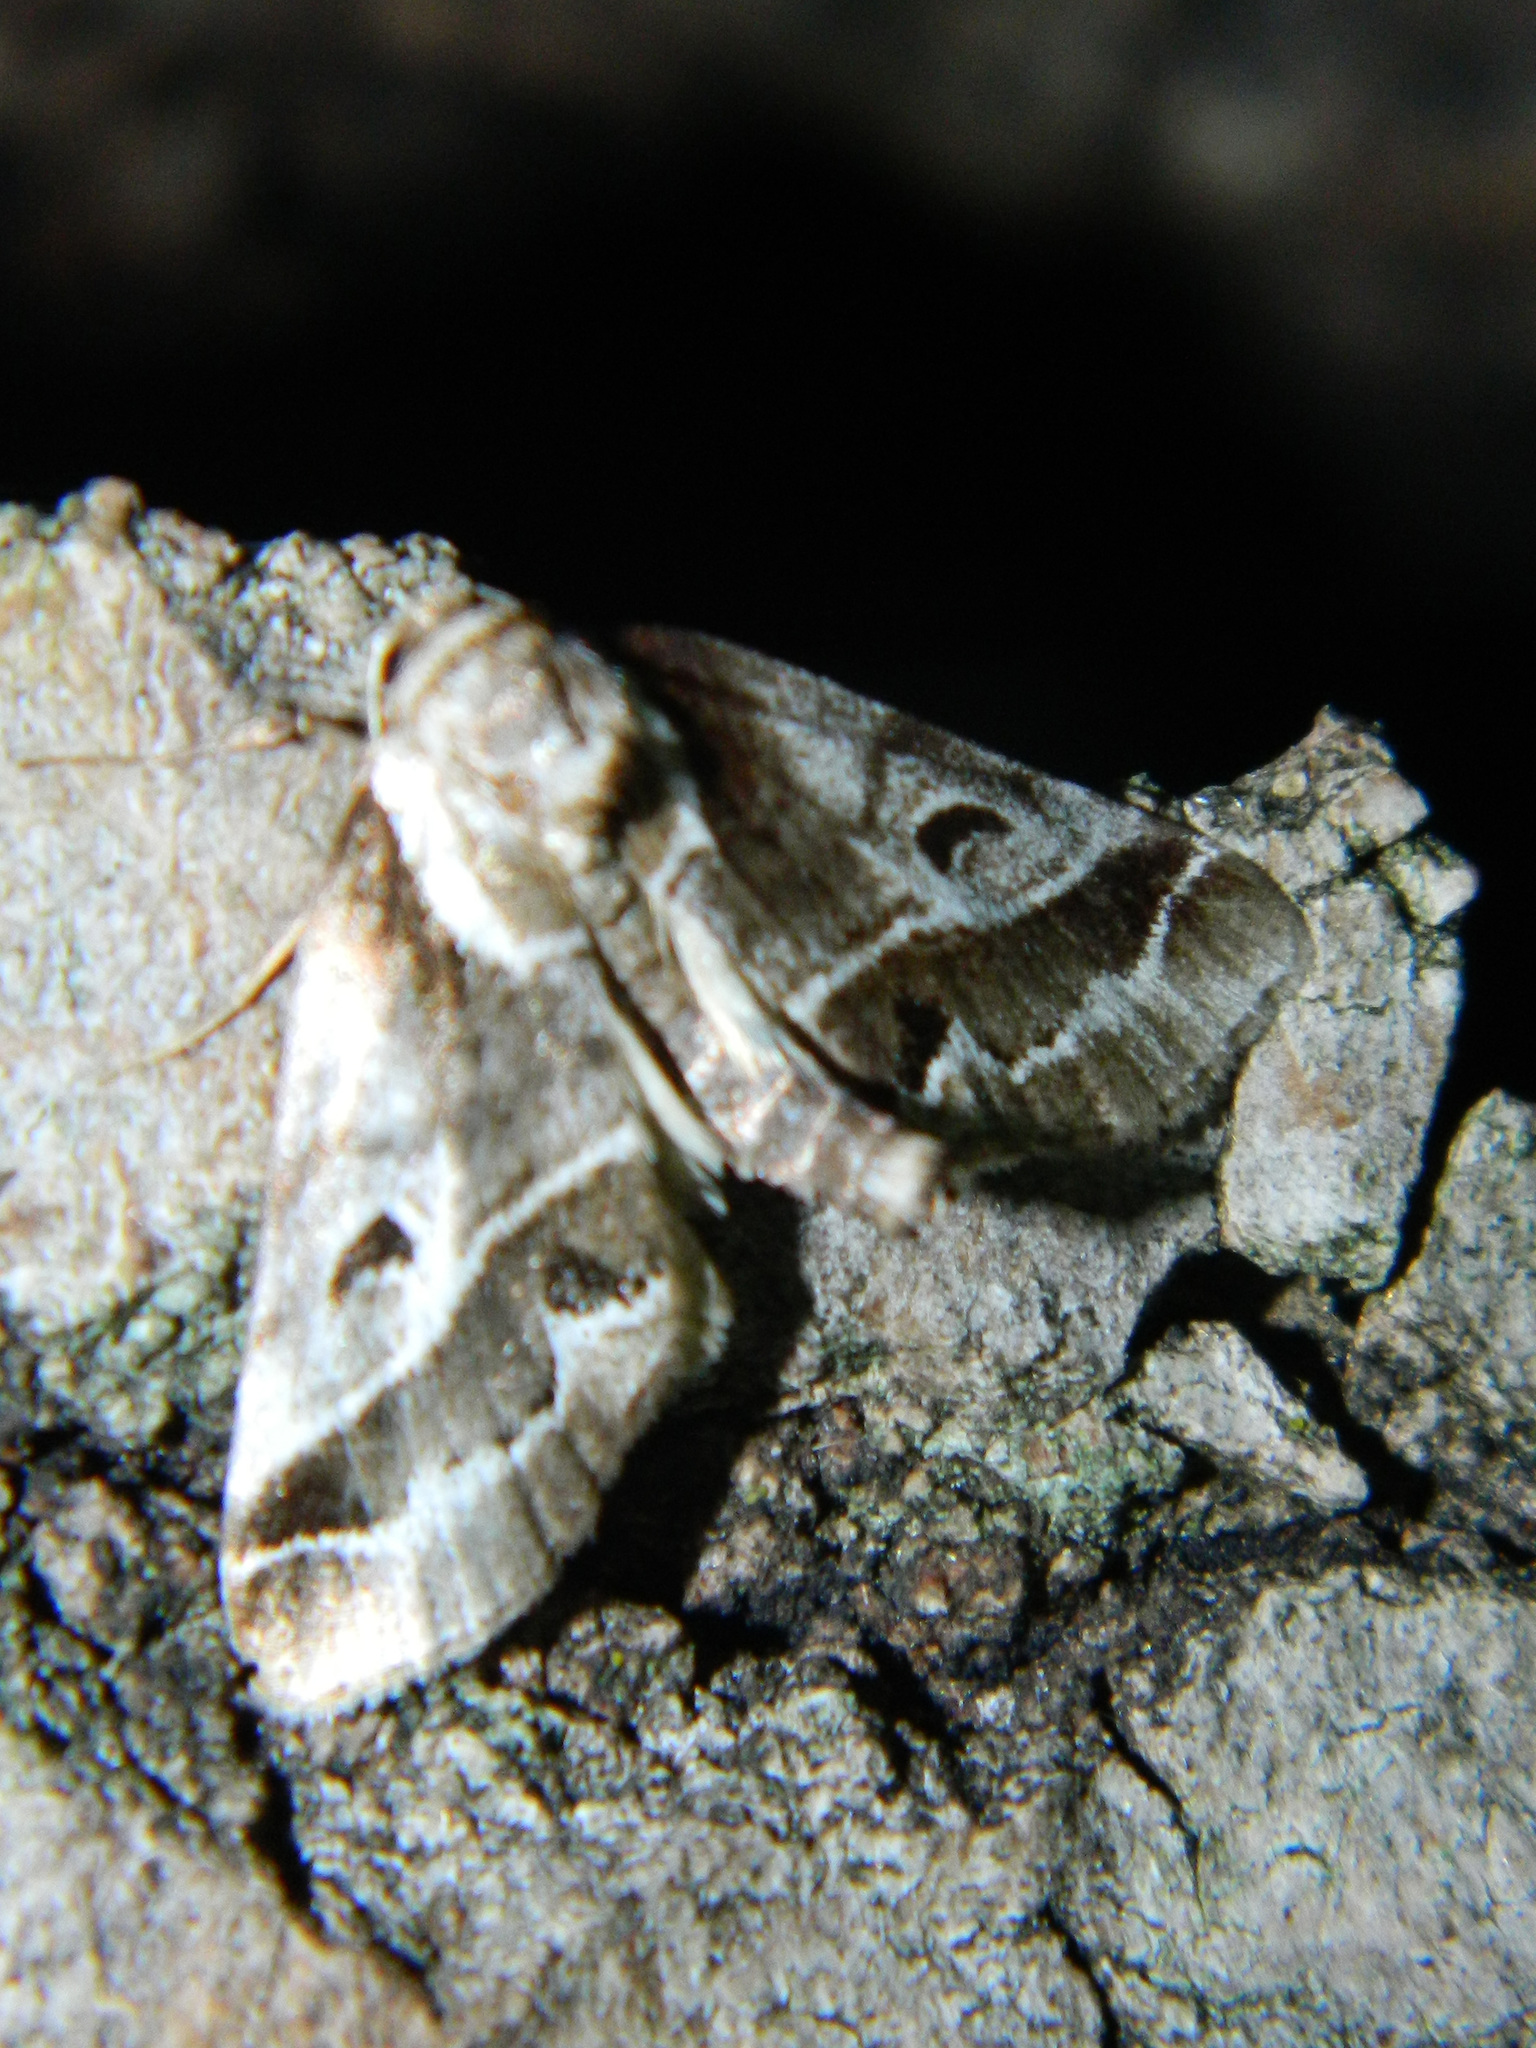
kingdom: Animalia
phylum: Arthropoda
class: Insecta
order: Lepidoptera
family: Nolidae
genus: Baileya
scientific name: Baileya doubledayi
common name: Doubleday's baileya moth
